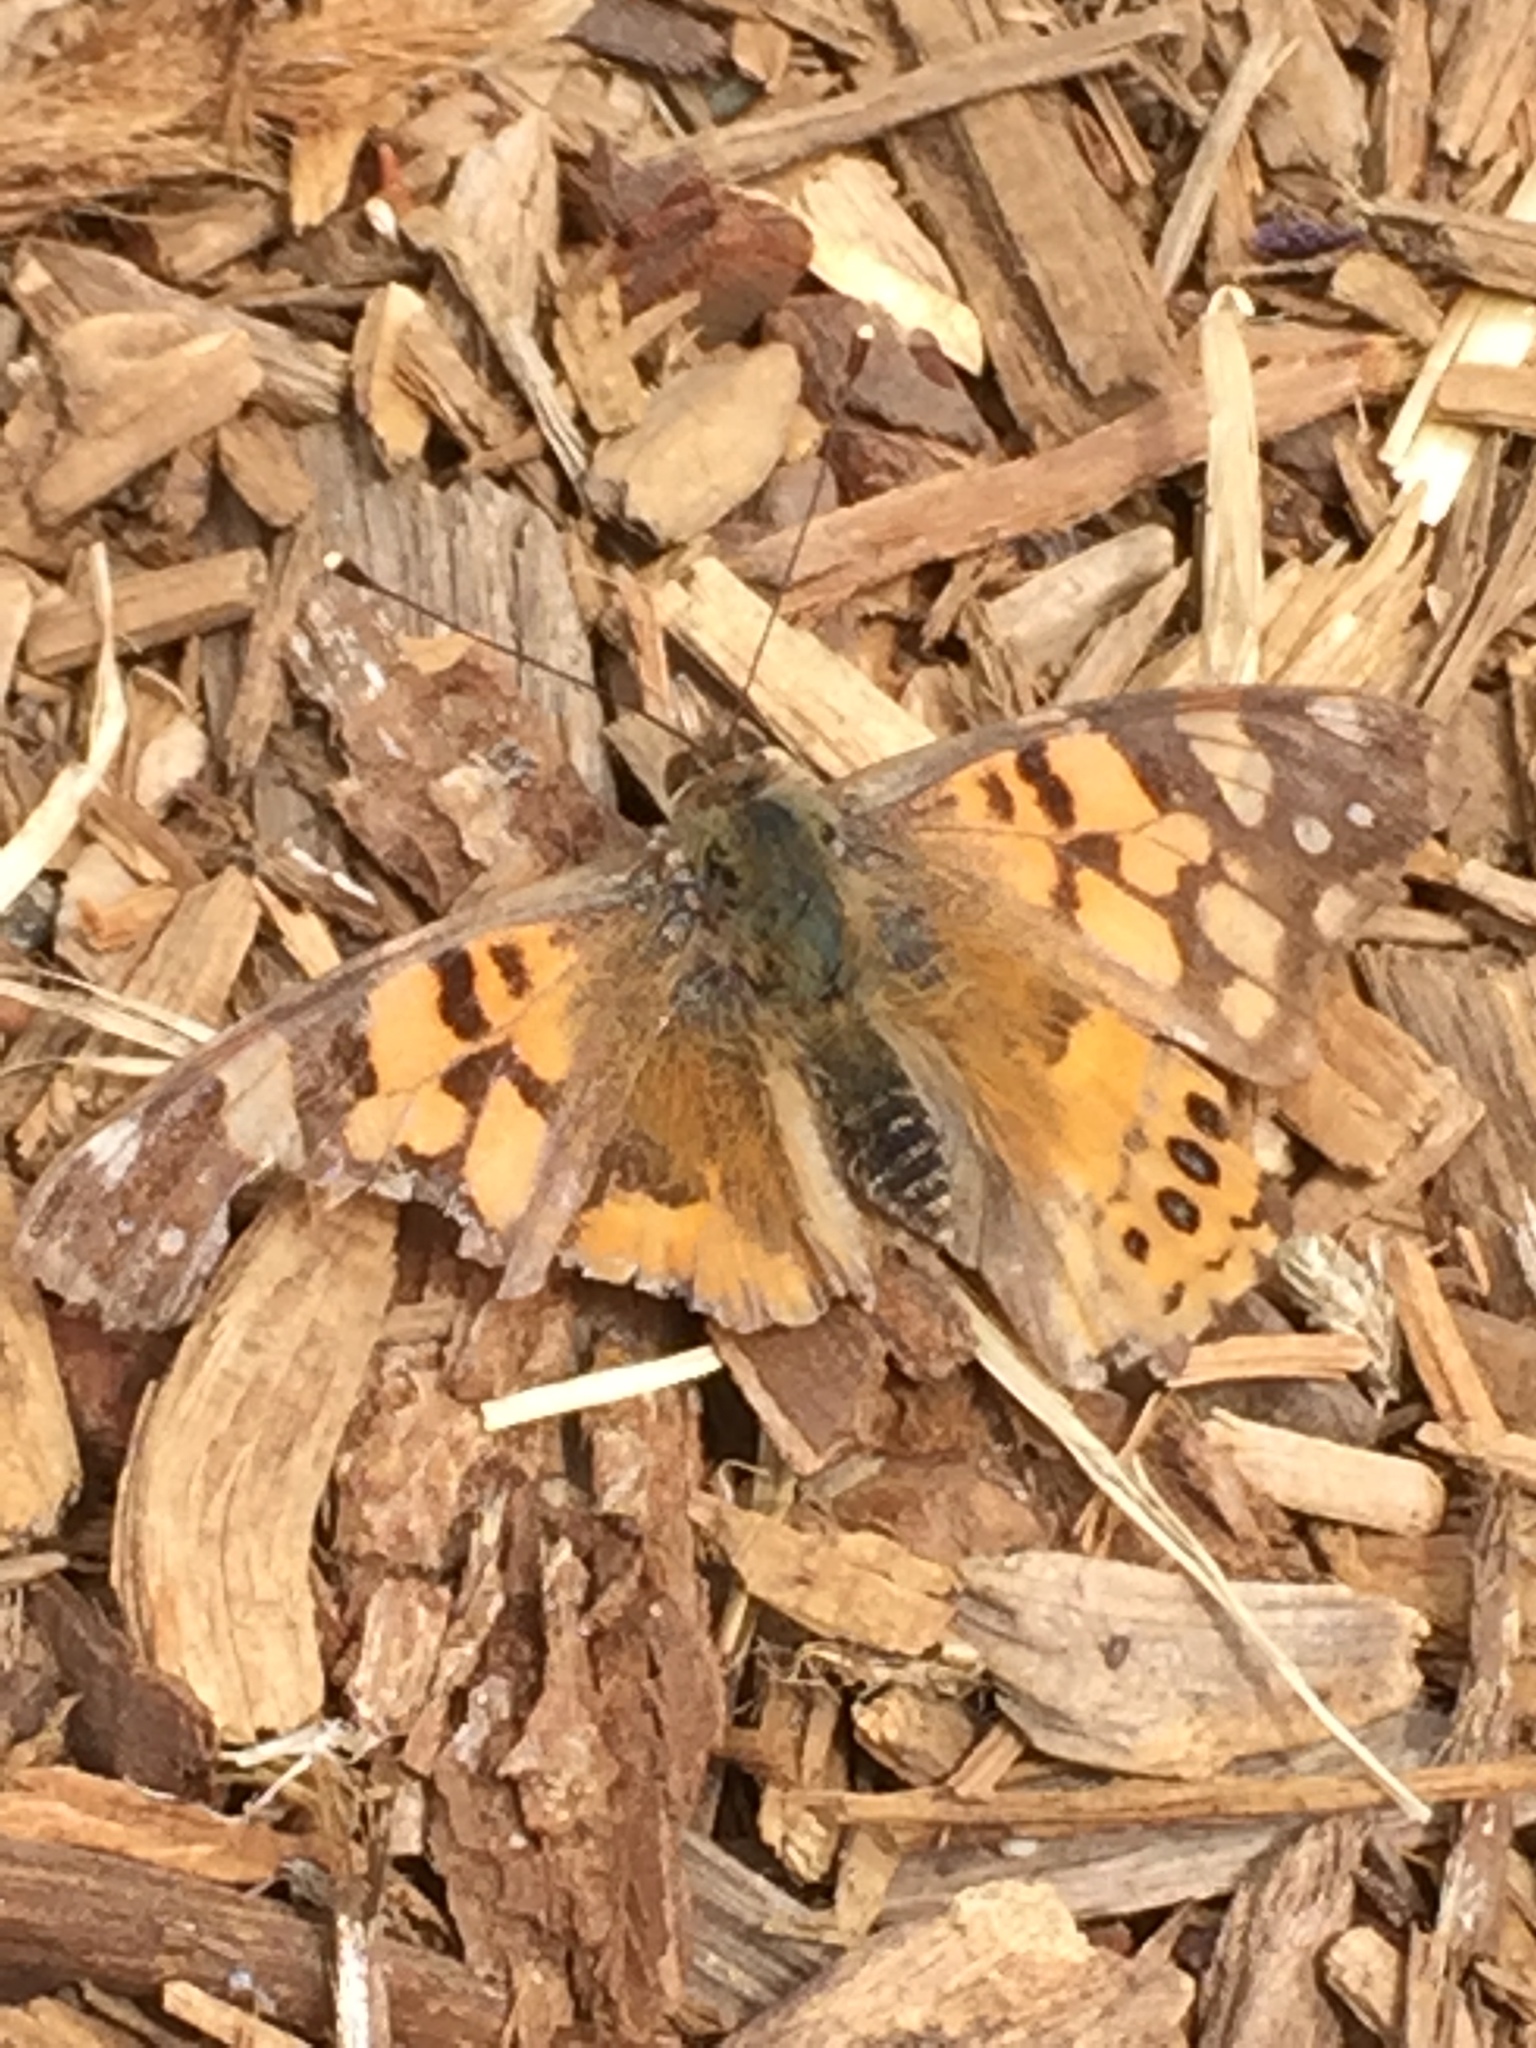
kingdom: Animalia
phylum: Arthropoda
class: Insecta
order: Lepidoptera
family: Nymphalidae
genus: Vanessa
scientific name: Vanessa annabella
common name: West coast lady
